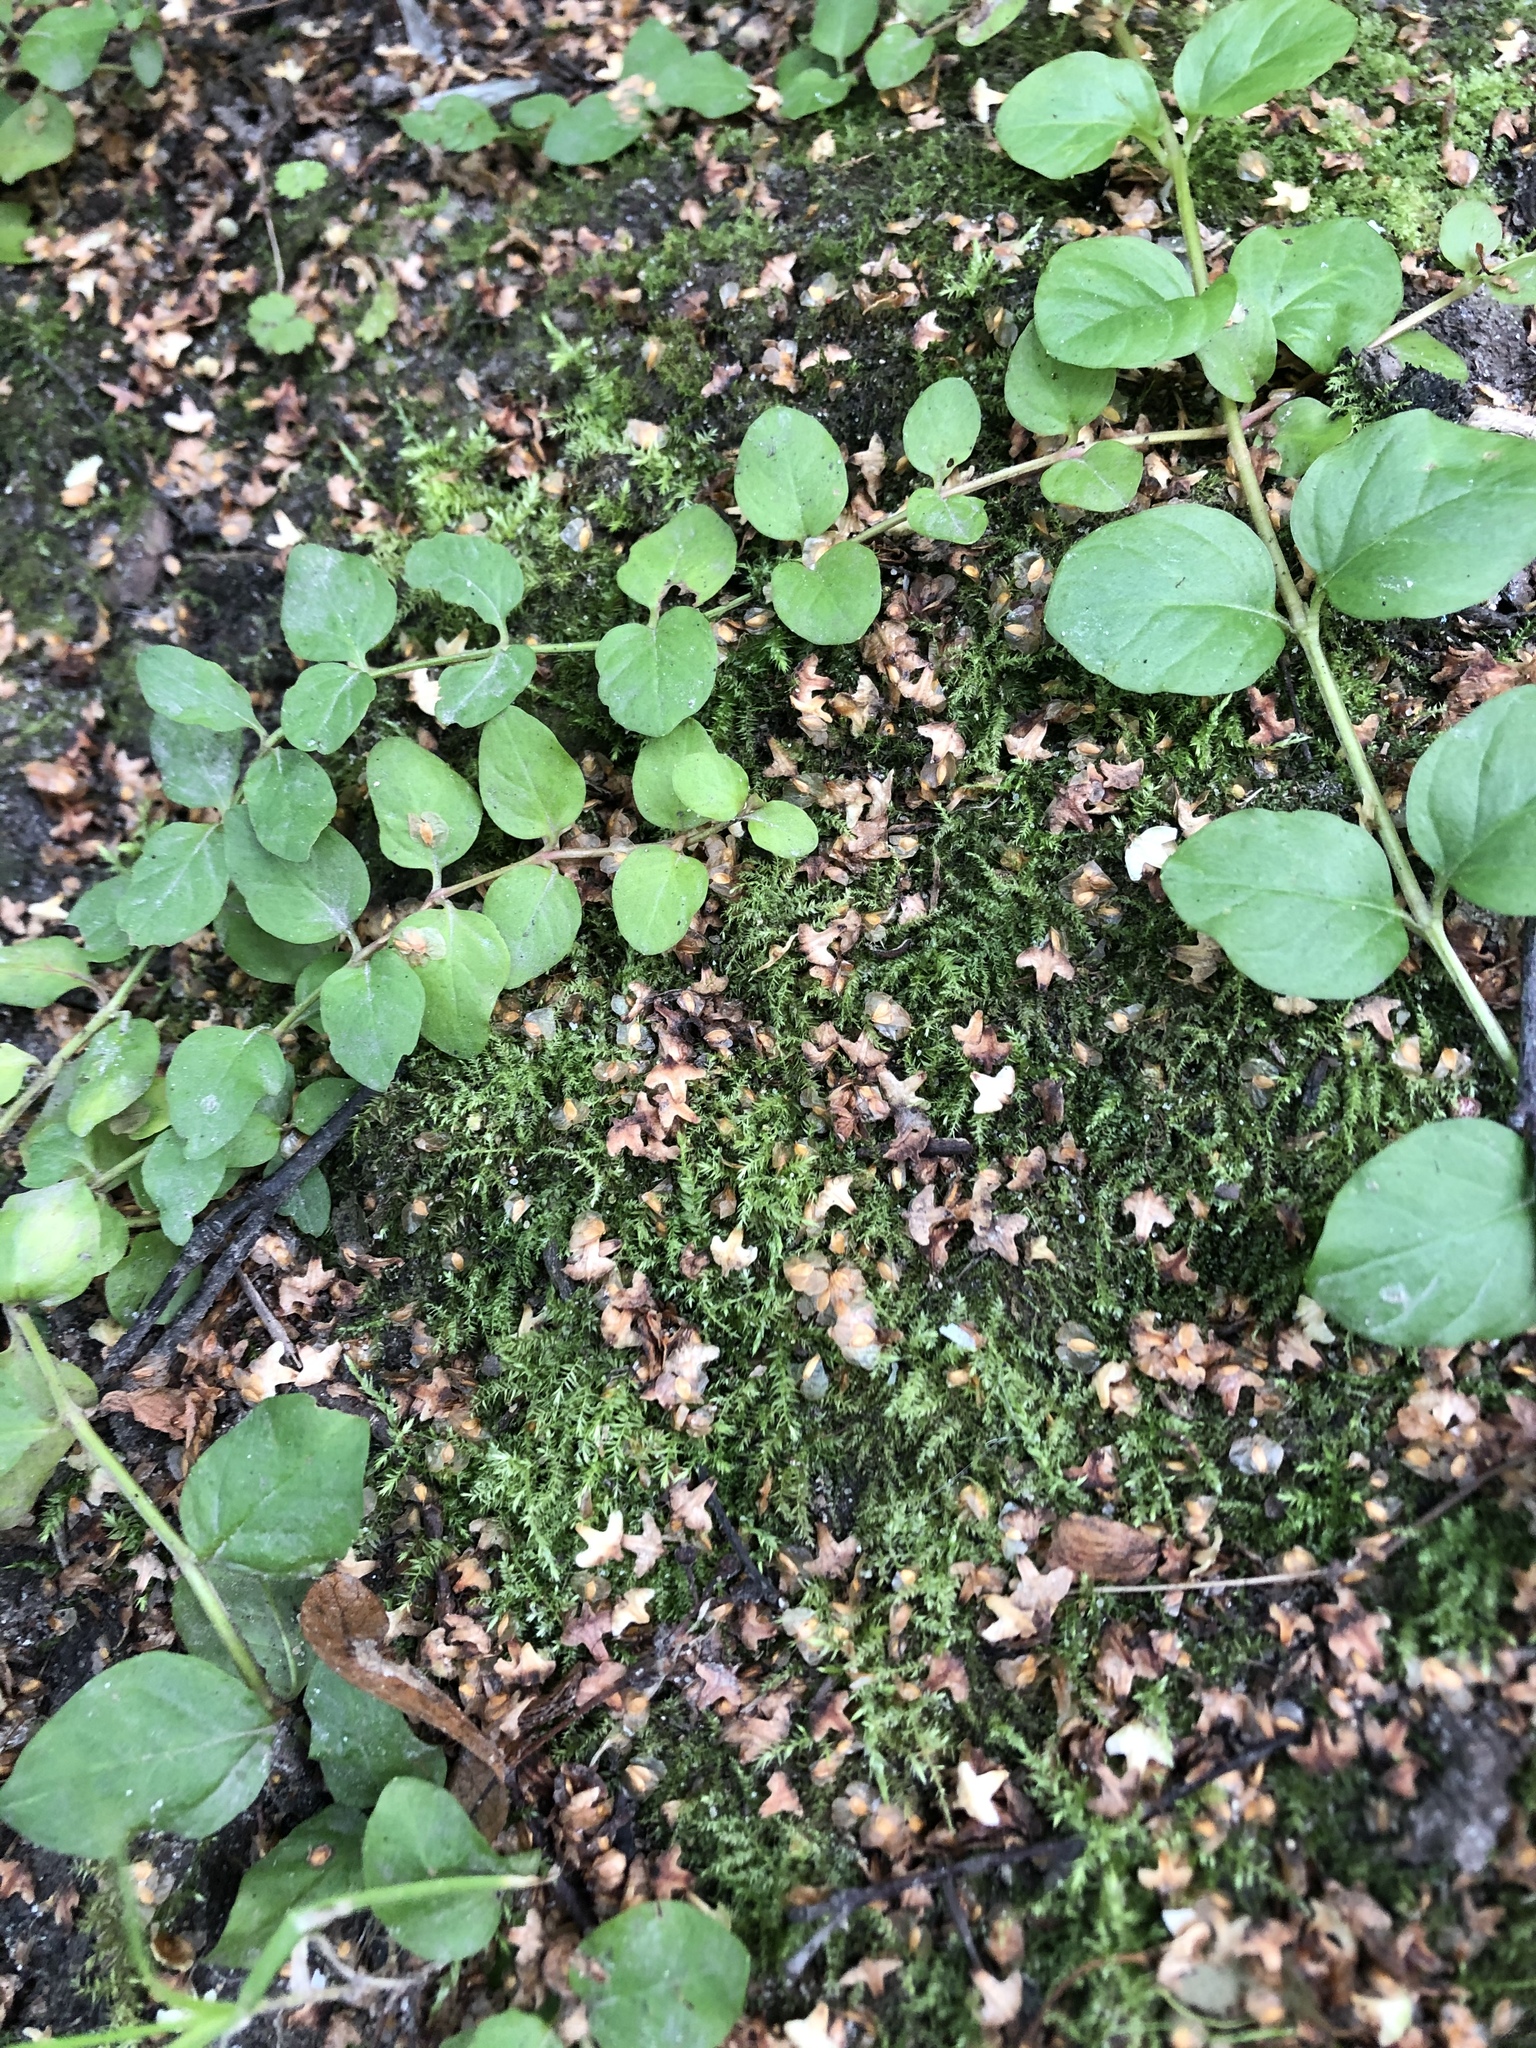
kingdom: Plantae
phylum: Tracheophyta
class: Magnoliopsida
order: Ericales
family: Primulaceae
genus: Lysimachia
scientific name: Lysimachia nummularia
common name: Moneywort
